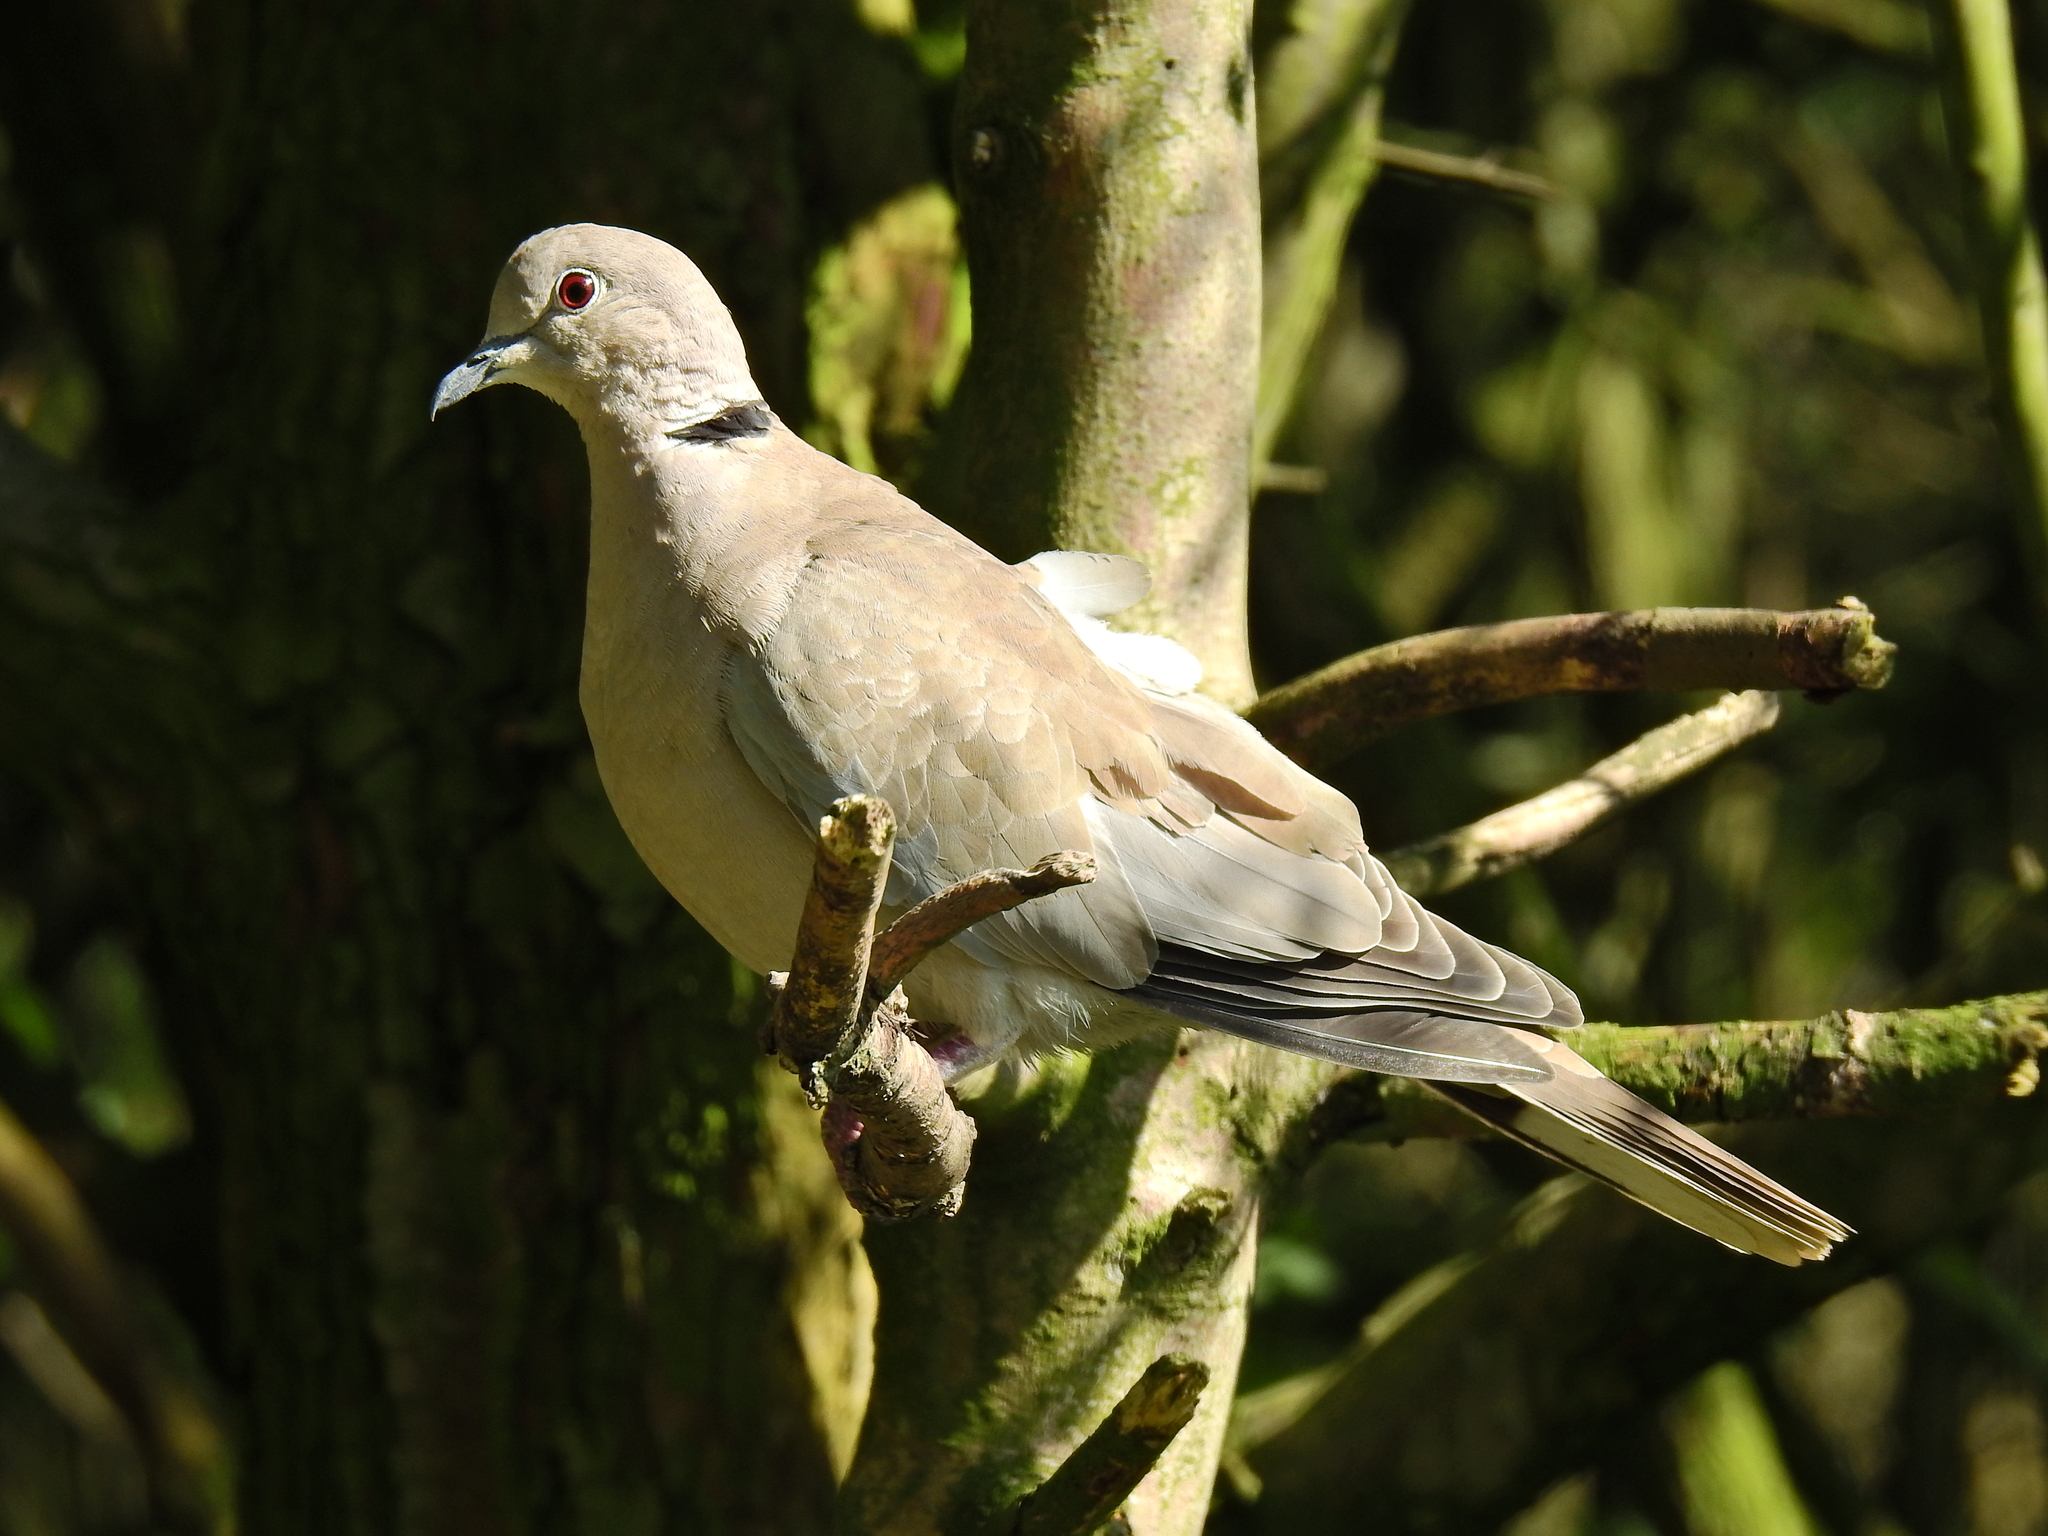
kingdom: Animalia
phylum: Chordata
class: Aves
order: Columbiformes
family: Columbidae
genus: Streptopelia
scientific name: Streptopelia decaocto
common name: Eurasian collared dove
